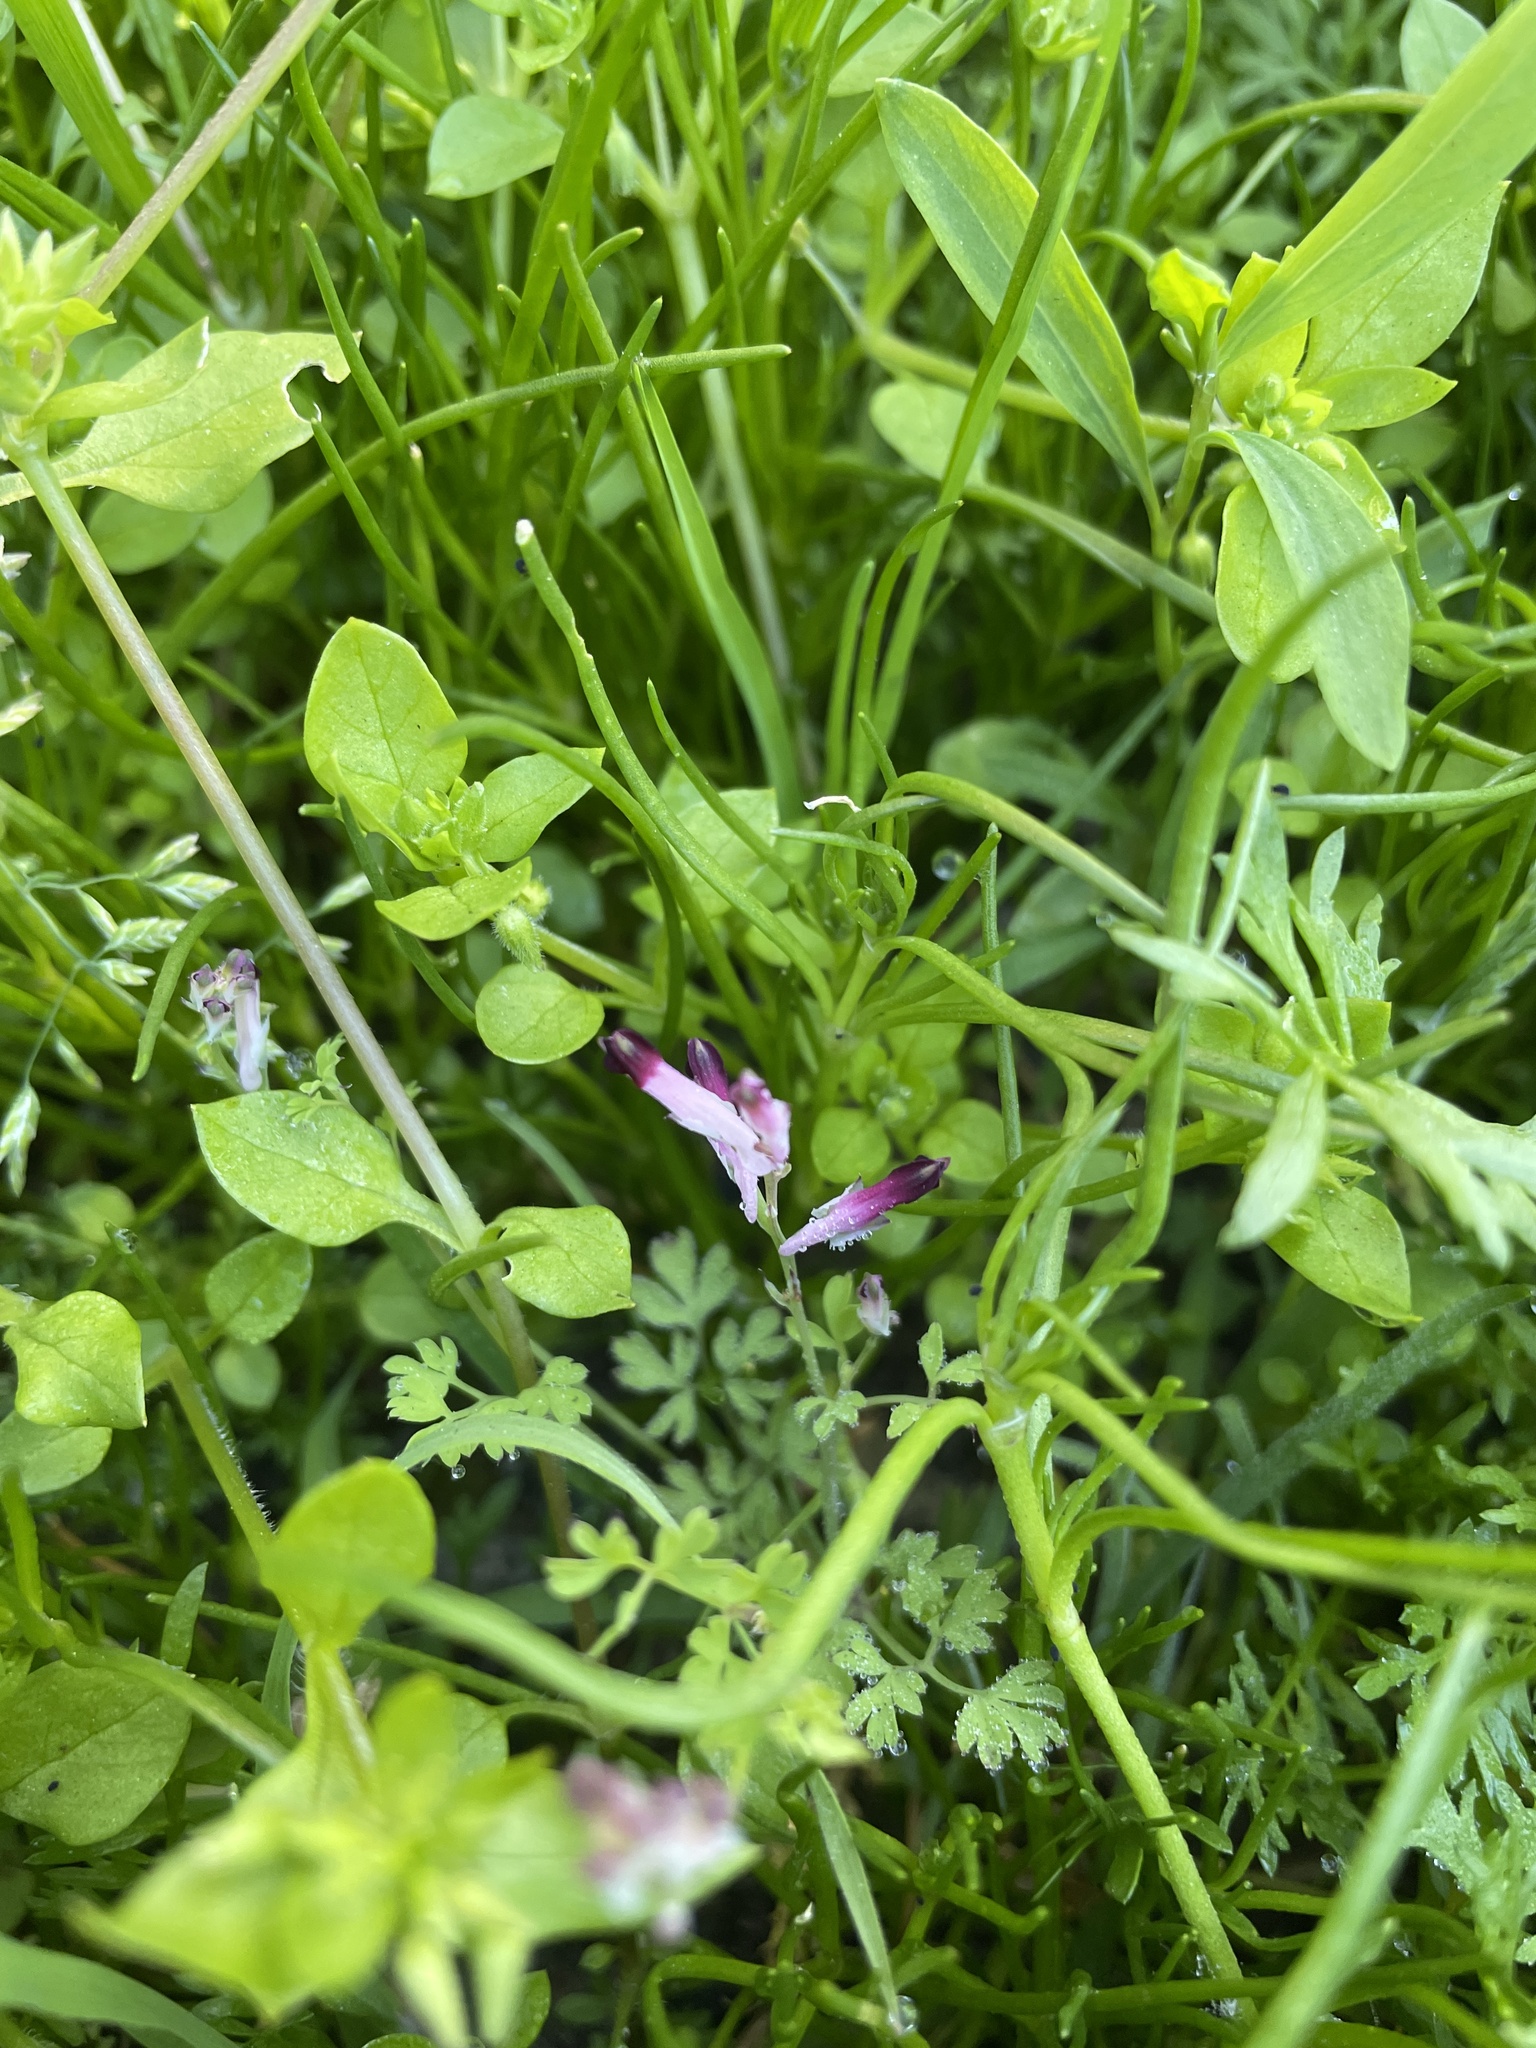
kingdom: Plantae
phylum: Tracheophyta
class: Magnoliopsida
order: Ranunculales
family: Papaveraceae
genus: Fumaria
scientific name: Fumaria muralis
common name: Common ramping-fumitory
